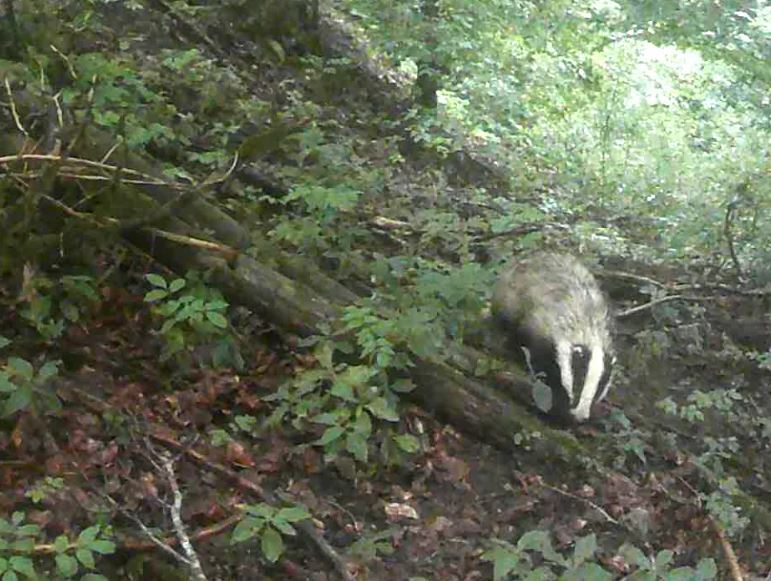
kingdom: Animalia
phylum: Chordata
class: Mammalia
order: Carnivora
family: Mustelidae
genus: Meles
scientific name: Meles meles
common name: Eurasian badger
